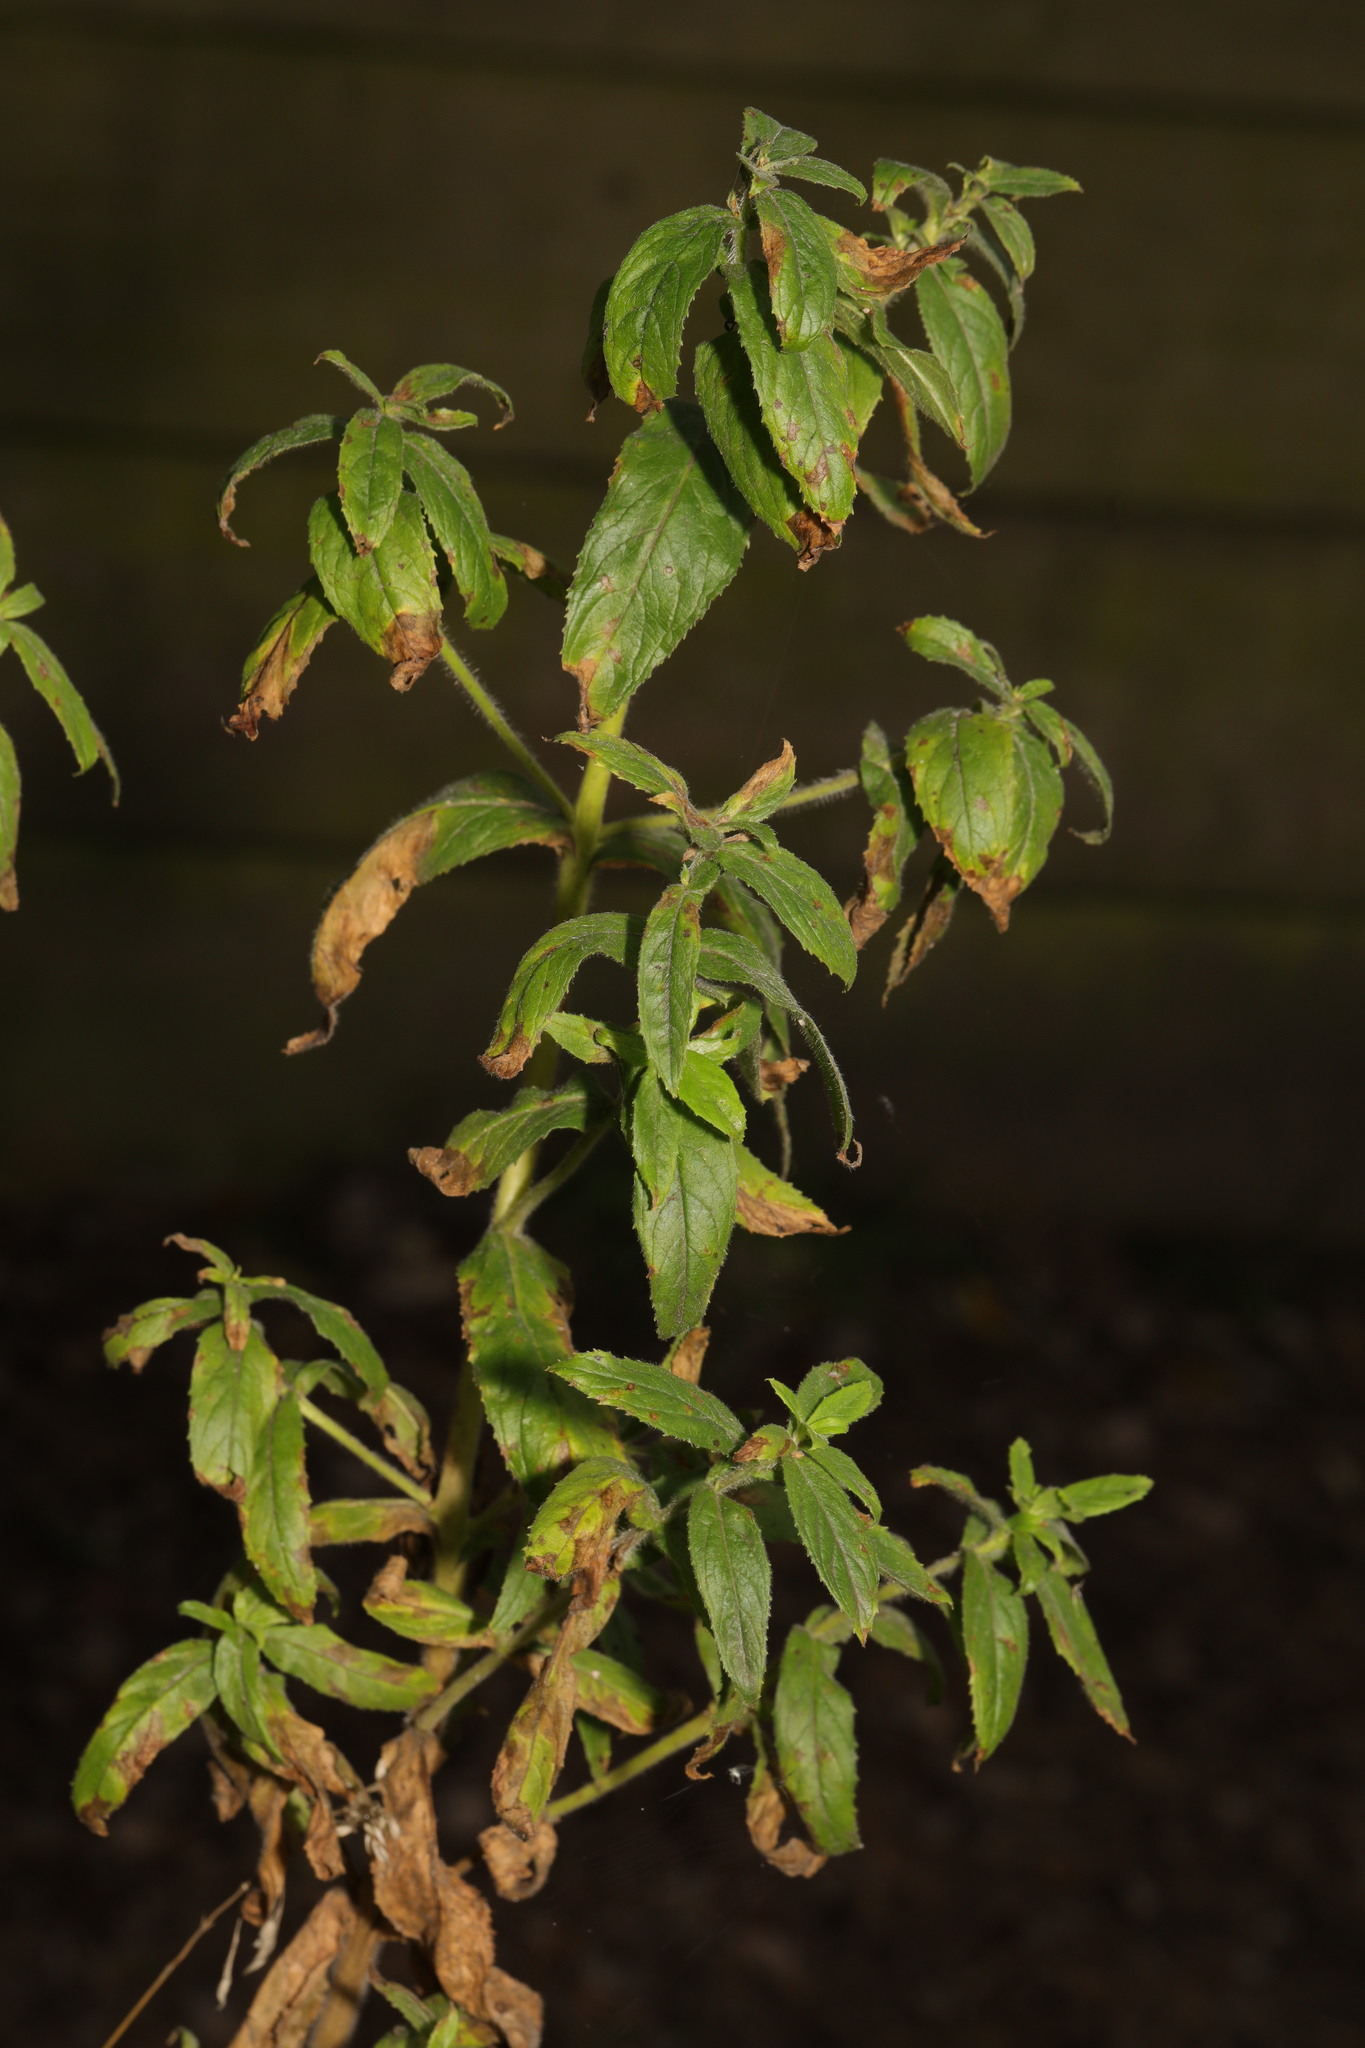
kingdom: Plantae
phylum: Tracheophyta
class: Magnoliopsida
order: Myrtales
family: Onagraceae
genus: Epilobium
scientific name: Epilobium hirsutum
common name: Great willowherb
